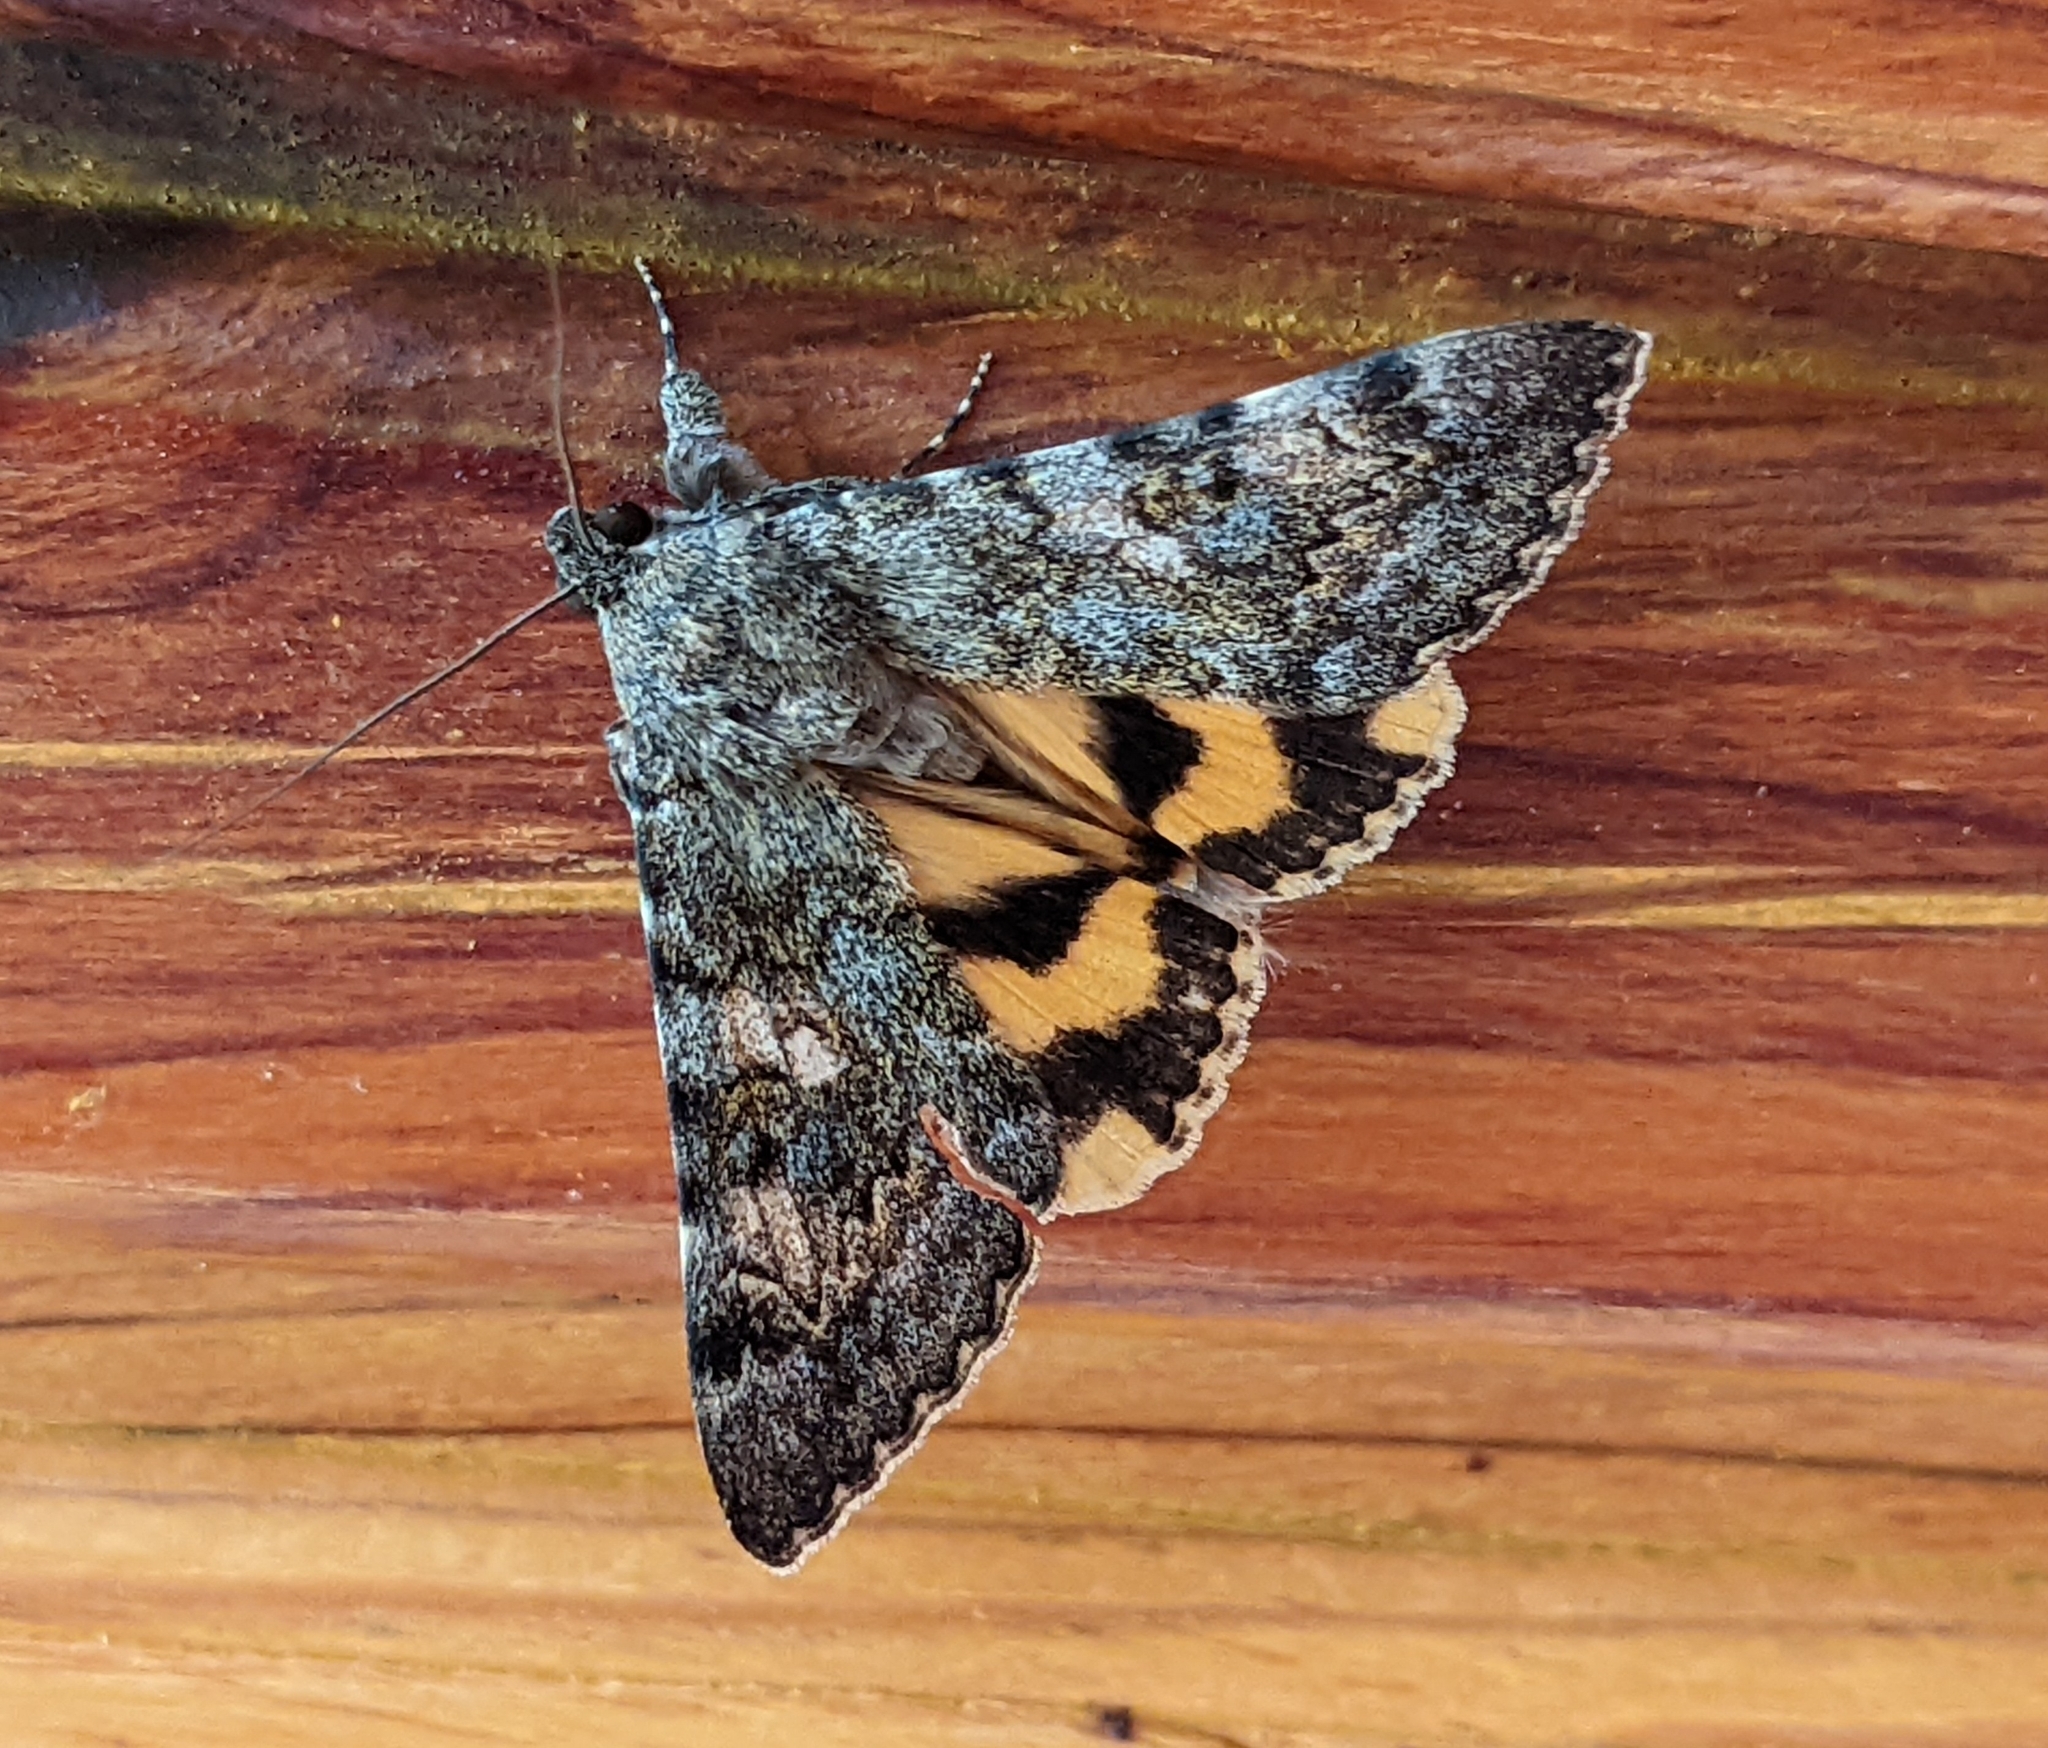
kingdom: Animalia
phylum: Arthropoda
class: Insecta
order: Lepidoptera
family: Erebidae
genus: Catocala
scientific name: Catocala nymphaea
